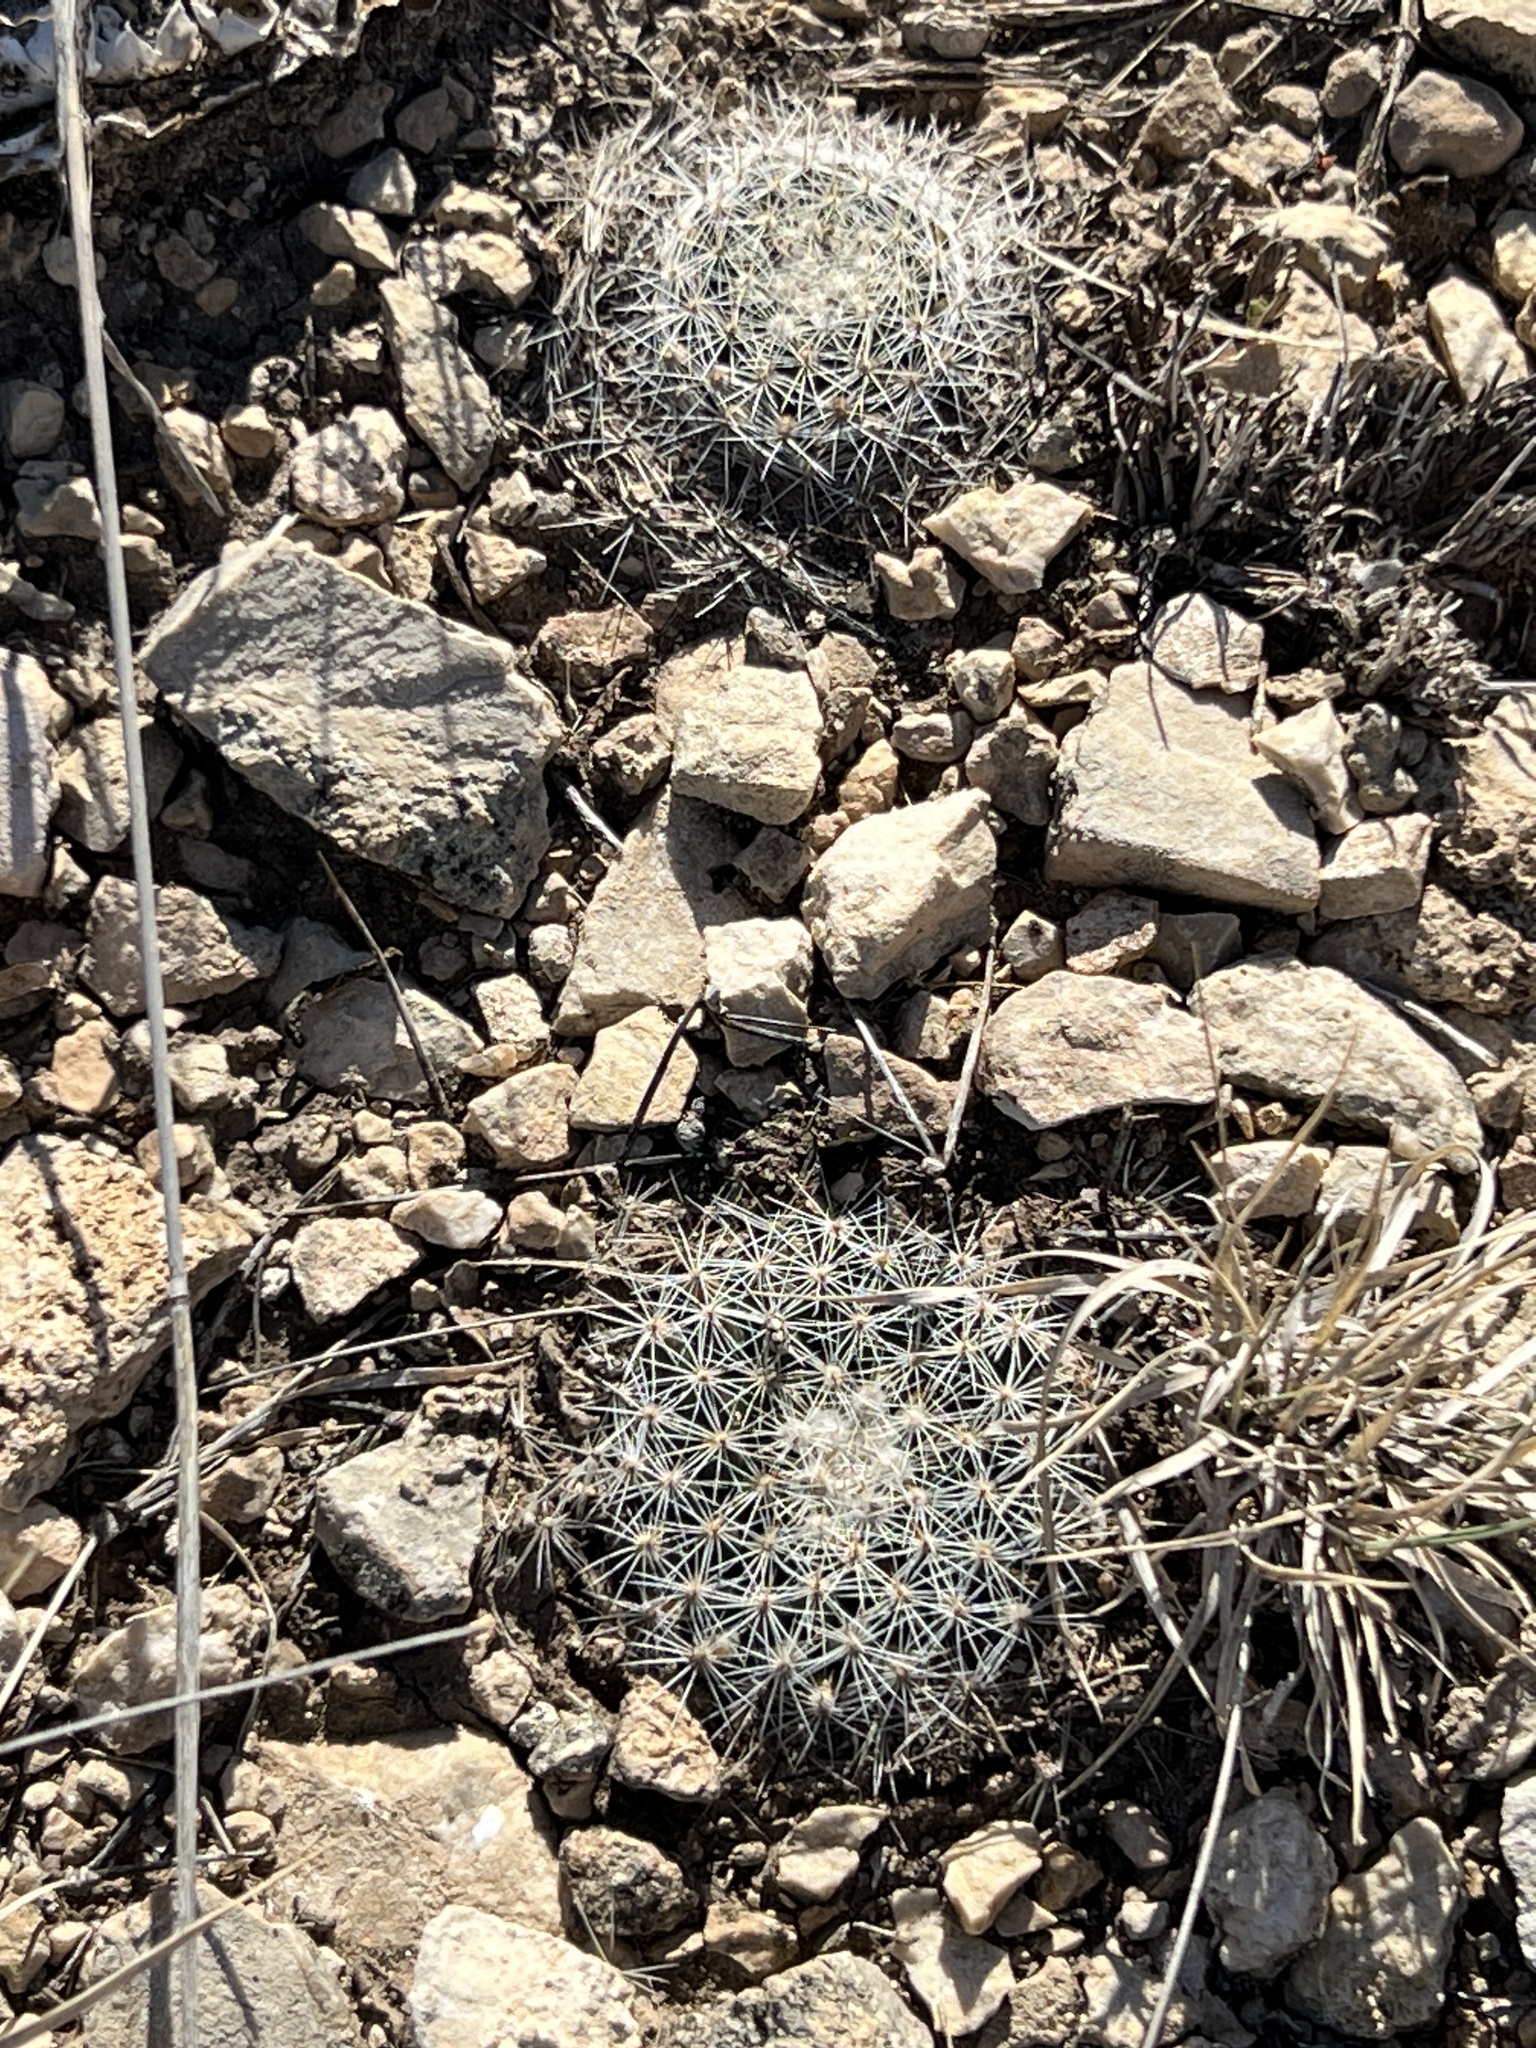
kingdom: Plantae
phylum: Tracheophyta
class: Magnoliopsida
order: Caryophyllales
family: Cactaceae
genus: Mammillaria
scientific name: Mammillaria heyderi
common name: Little nipple cactus
